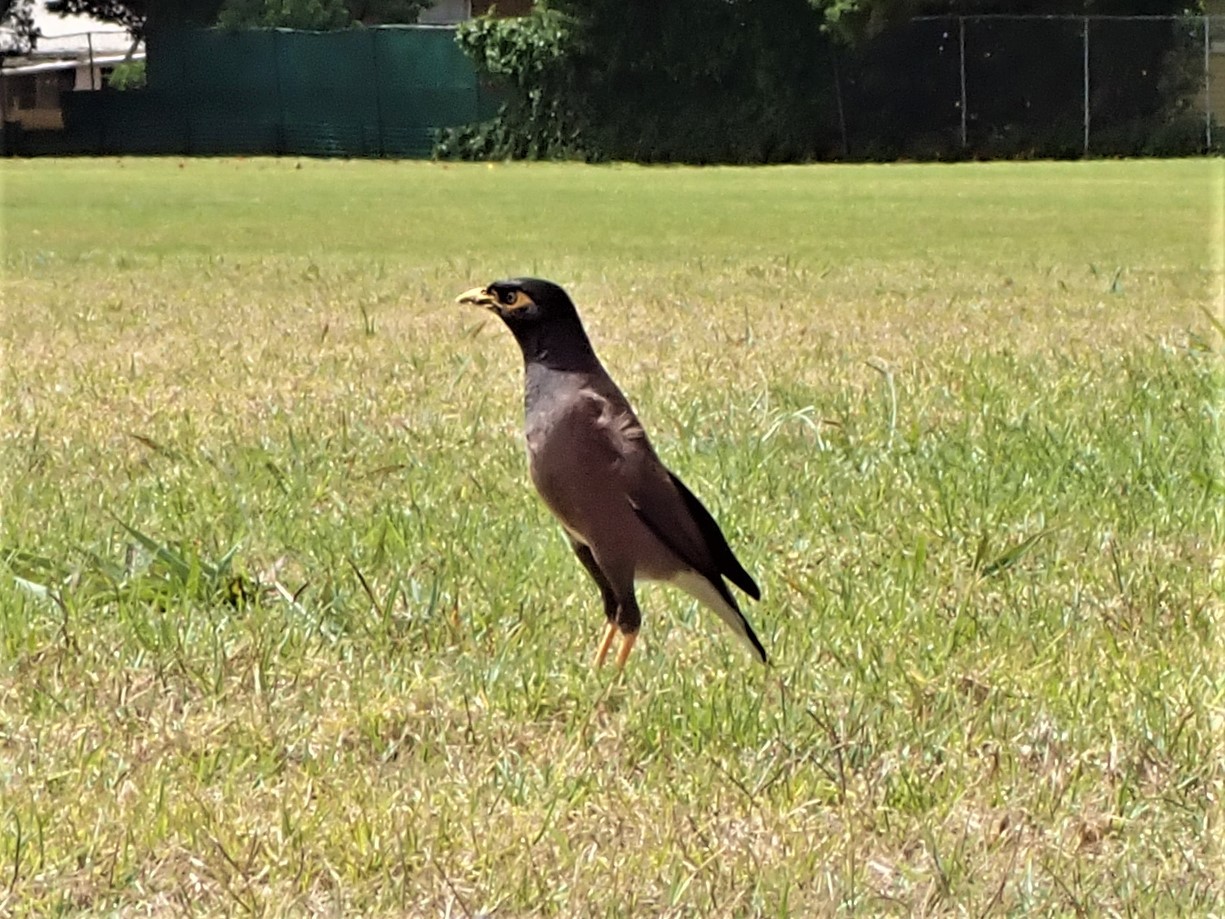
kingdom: Animalia
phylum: Chordata
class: Aves
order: Passeriformes
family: Sturnidae
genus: Acridotheres
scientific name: Acridotheres tristis
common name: Common myna
